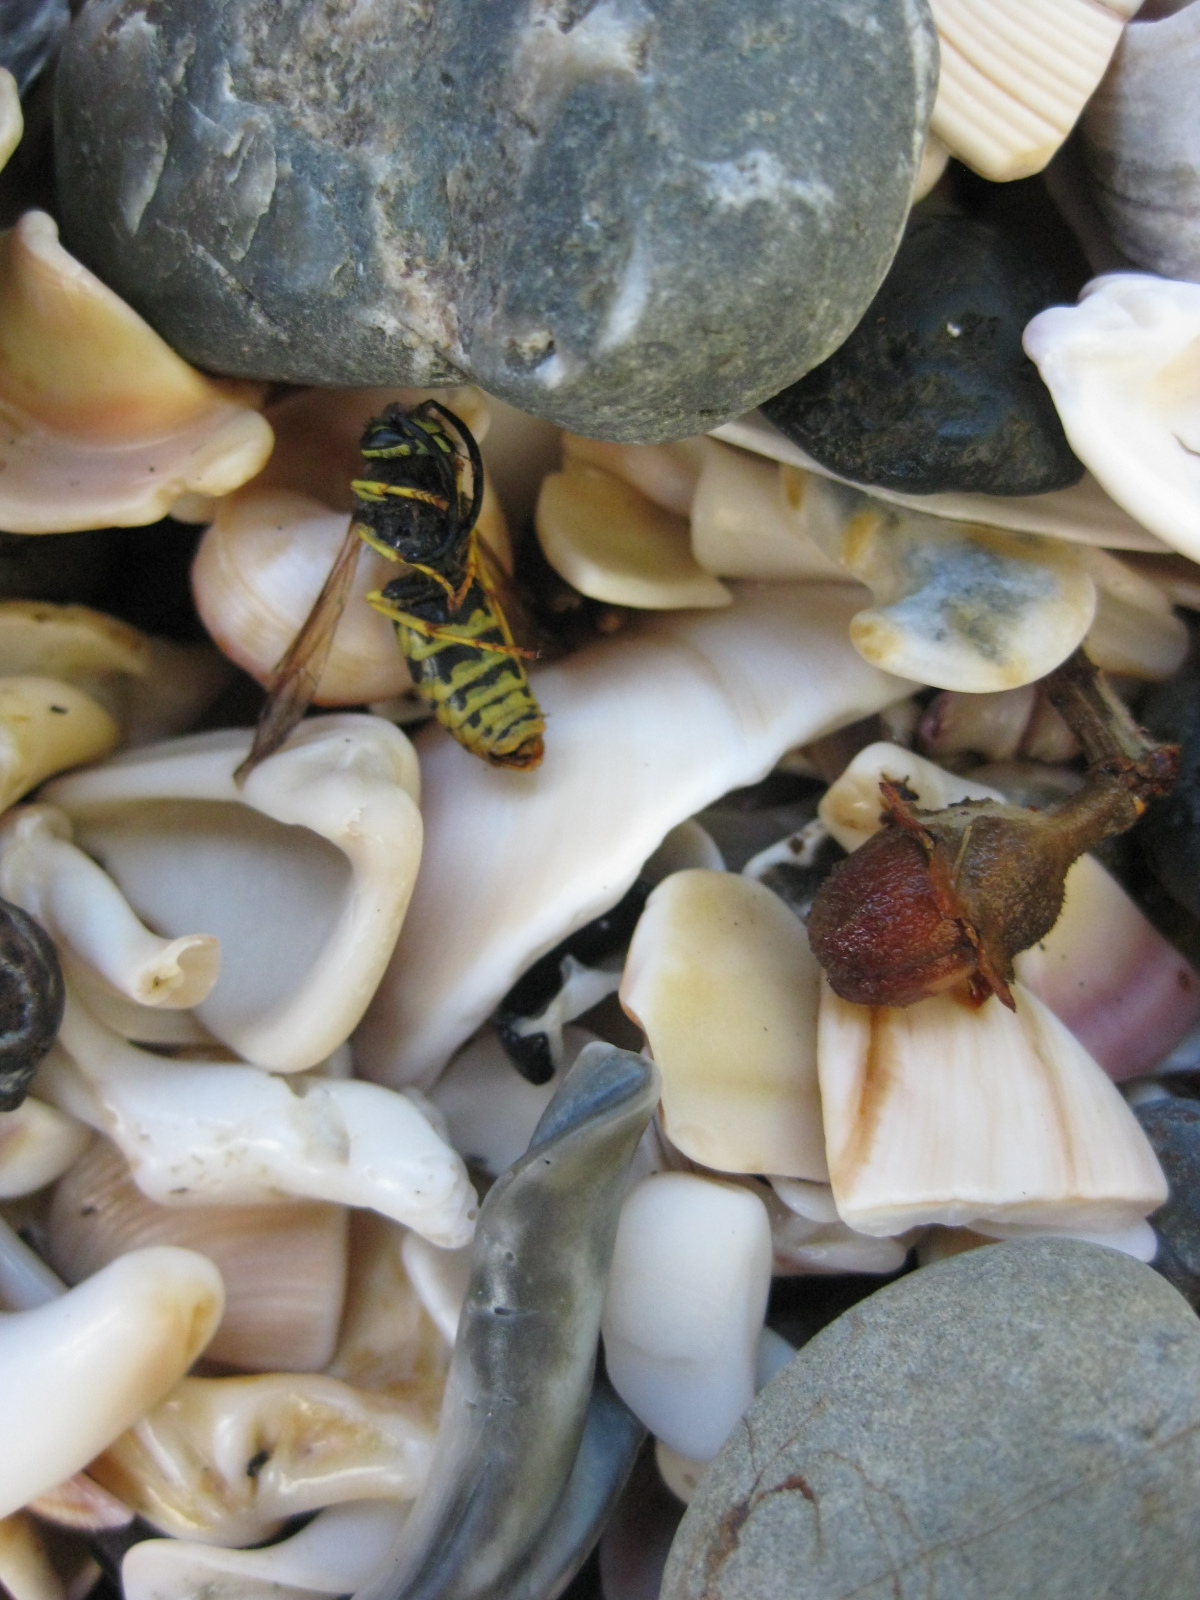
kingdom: Animalia
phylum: Arthropoda
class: Insecta
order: Hymenoptera
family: Vespidae
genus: Vespula
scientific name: Vespula germanica
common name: German wasp
